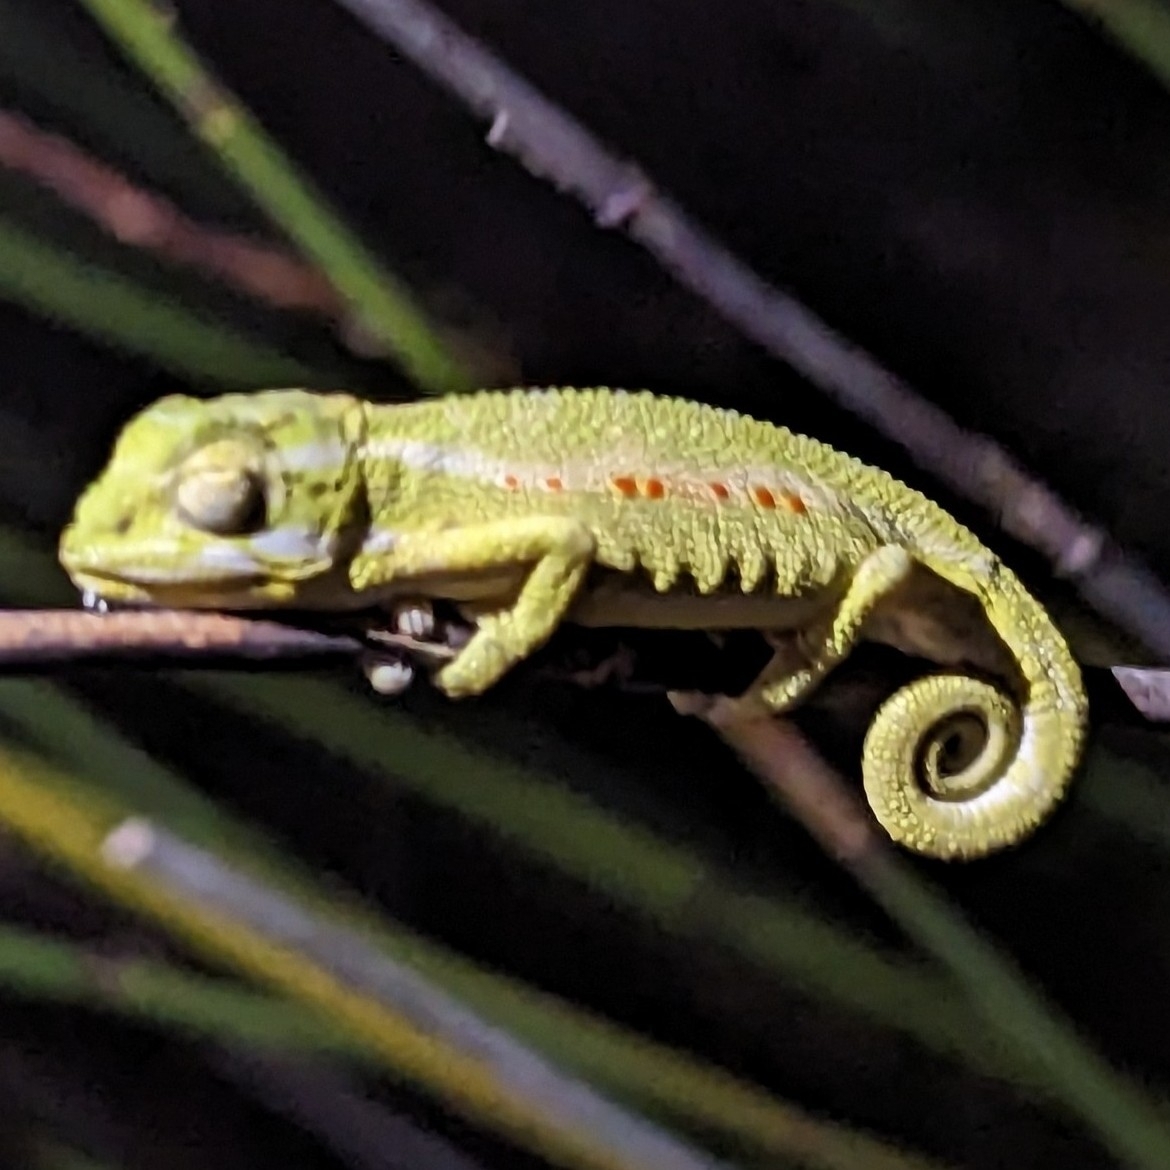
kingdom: Animalia
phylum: Chordata
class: Squamata
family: Chamaeleonidae
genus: Bradypodion
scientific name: Bradypodion pumilum
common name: Cape dwarf chameleon
